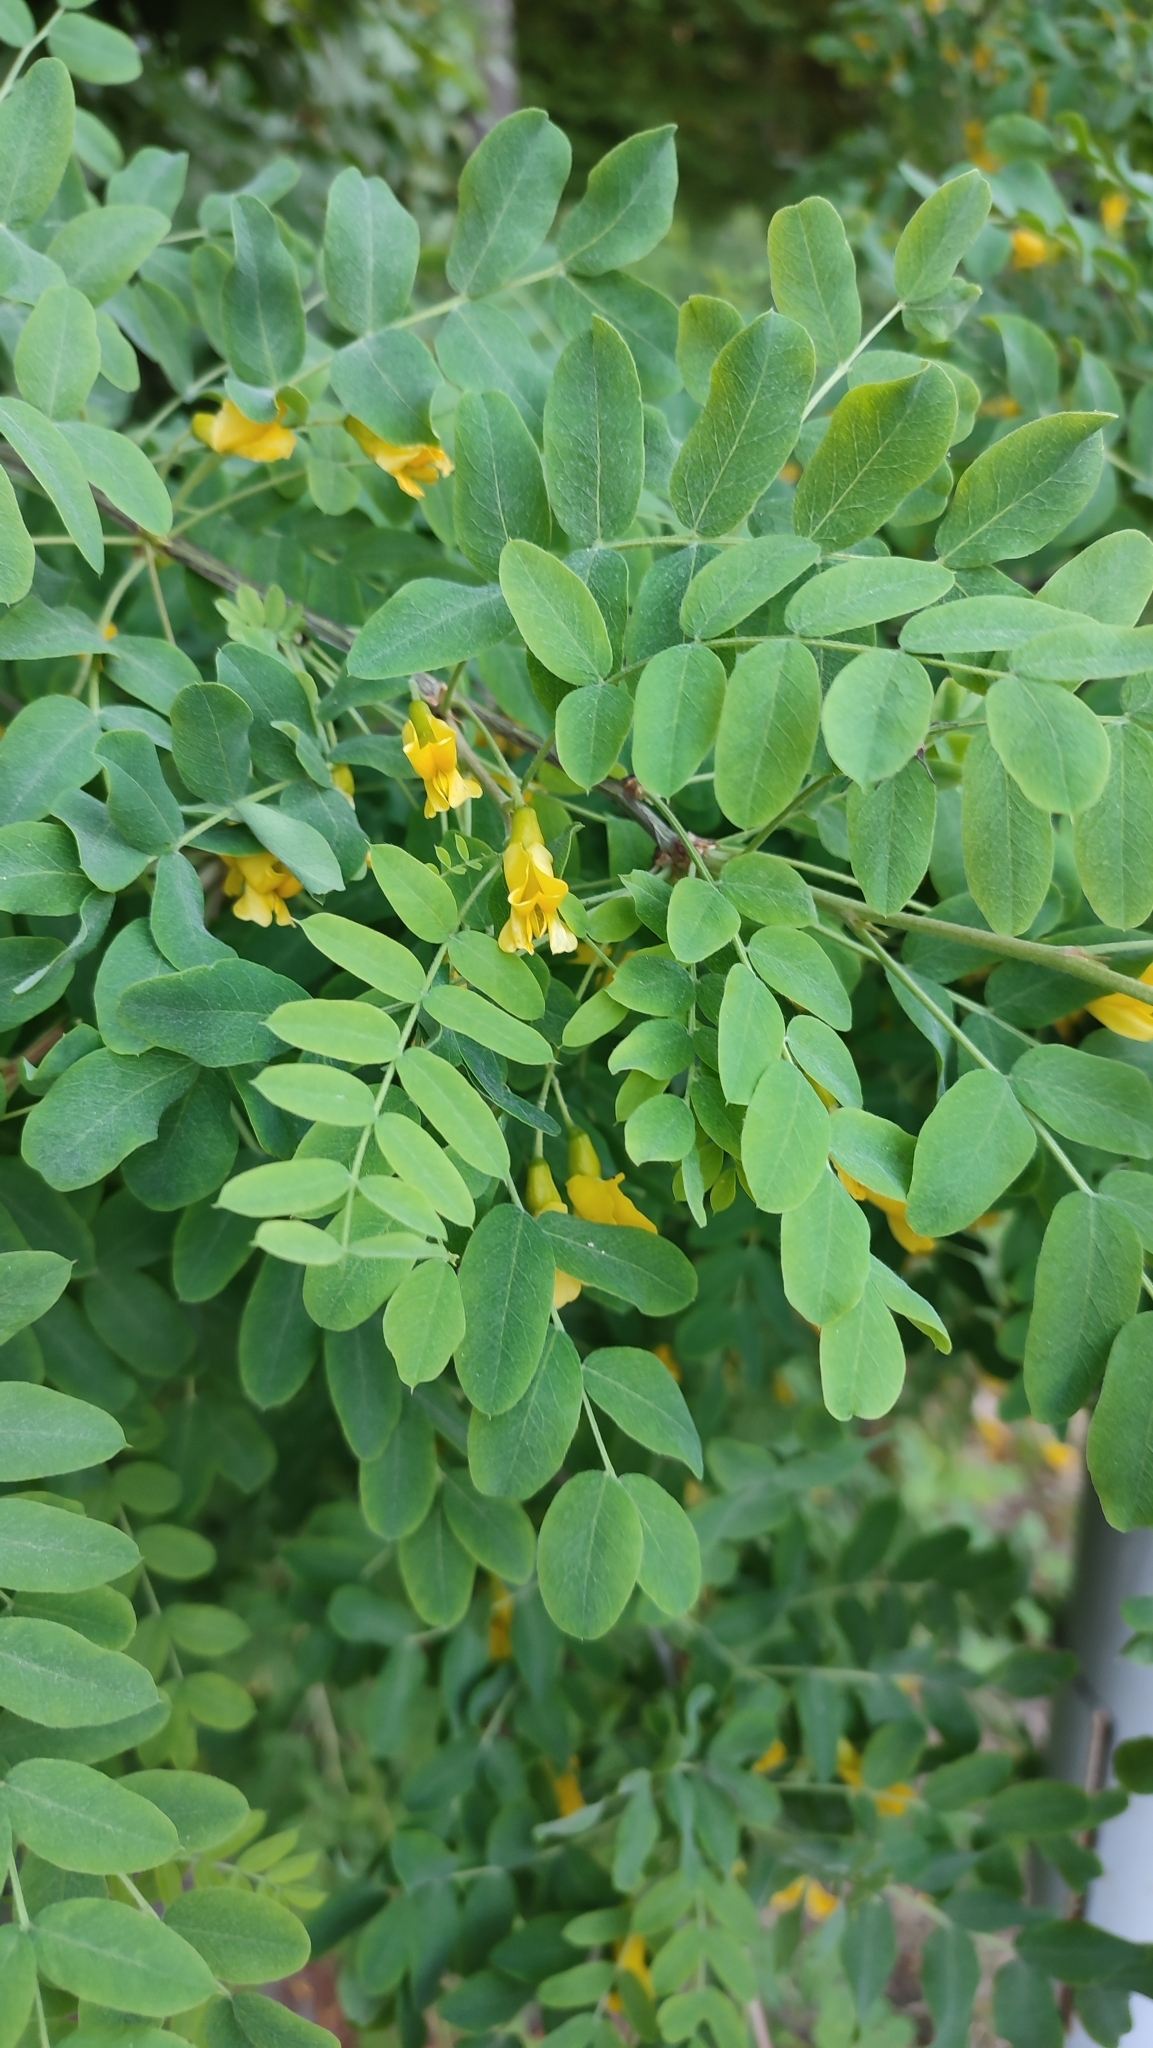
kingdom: Plantae
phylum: Tracheophyta
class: Magnoliopsida
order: Fabales
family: Fabaceae
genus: Caragana
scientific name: Caragana arborescens
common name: Siberian peashrub
